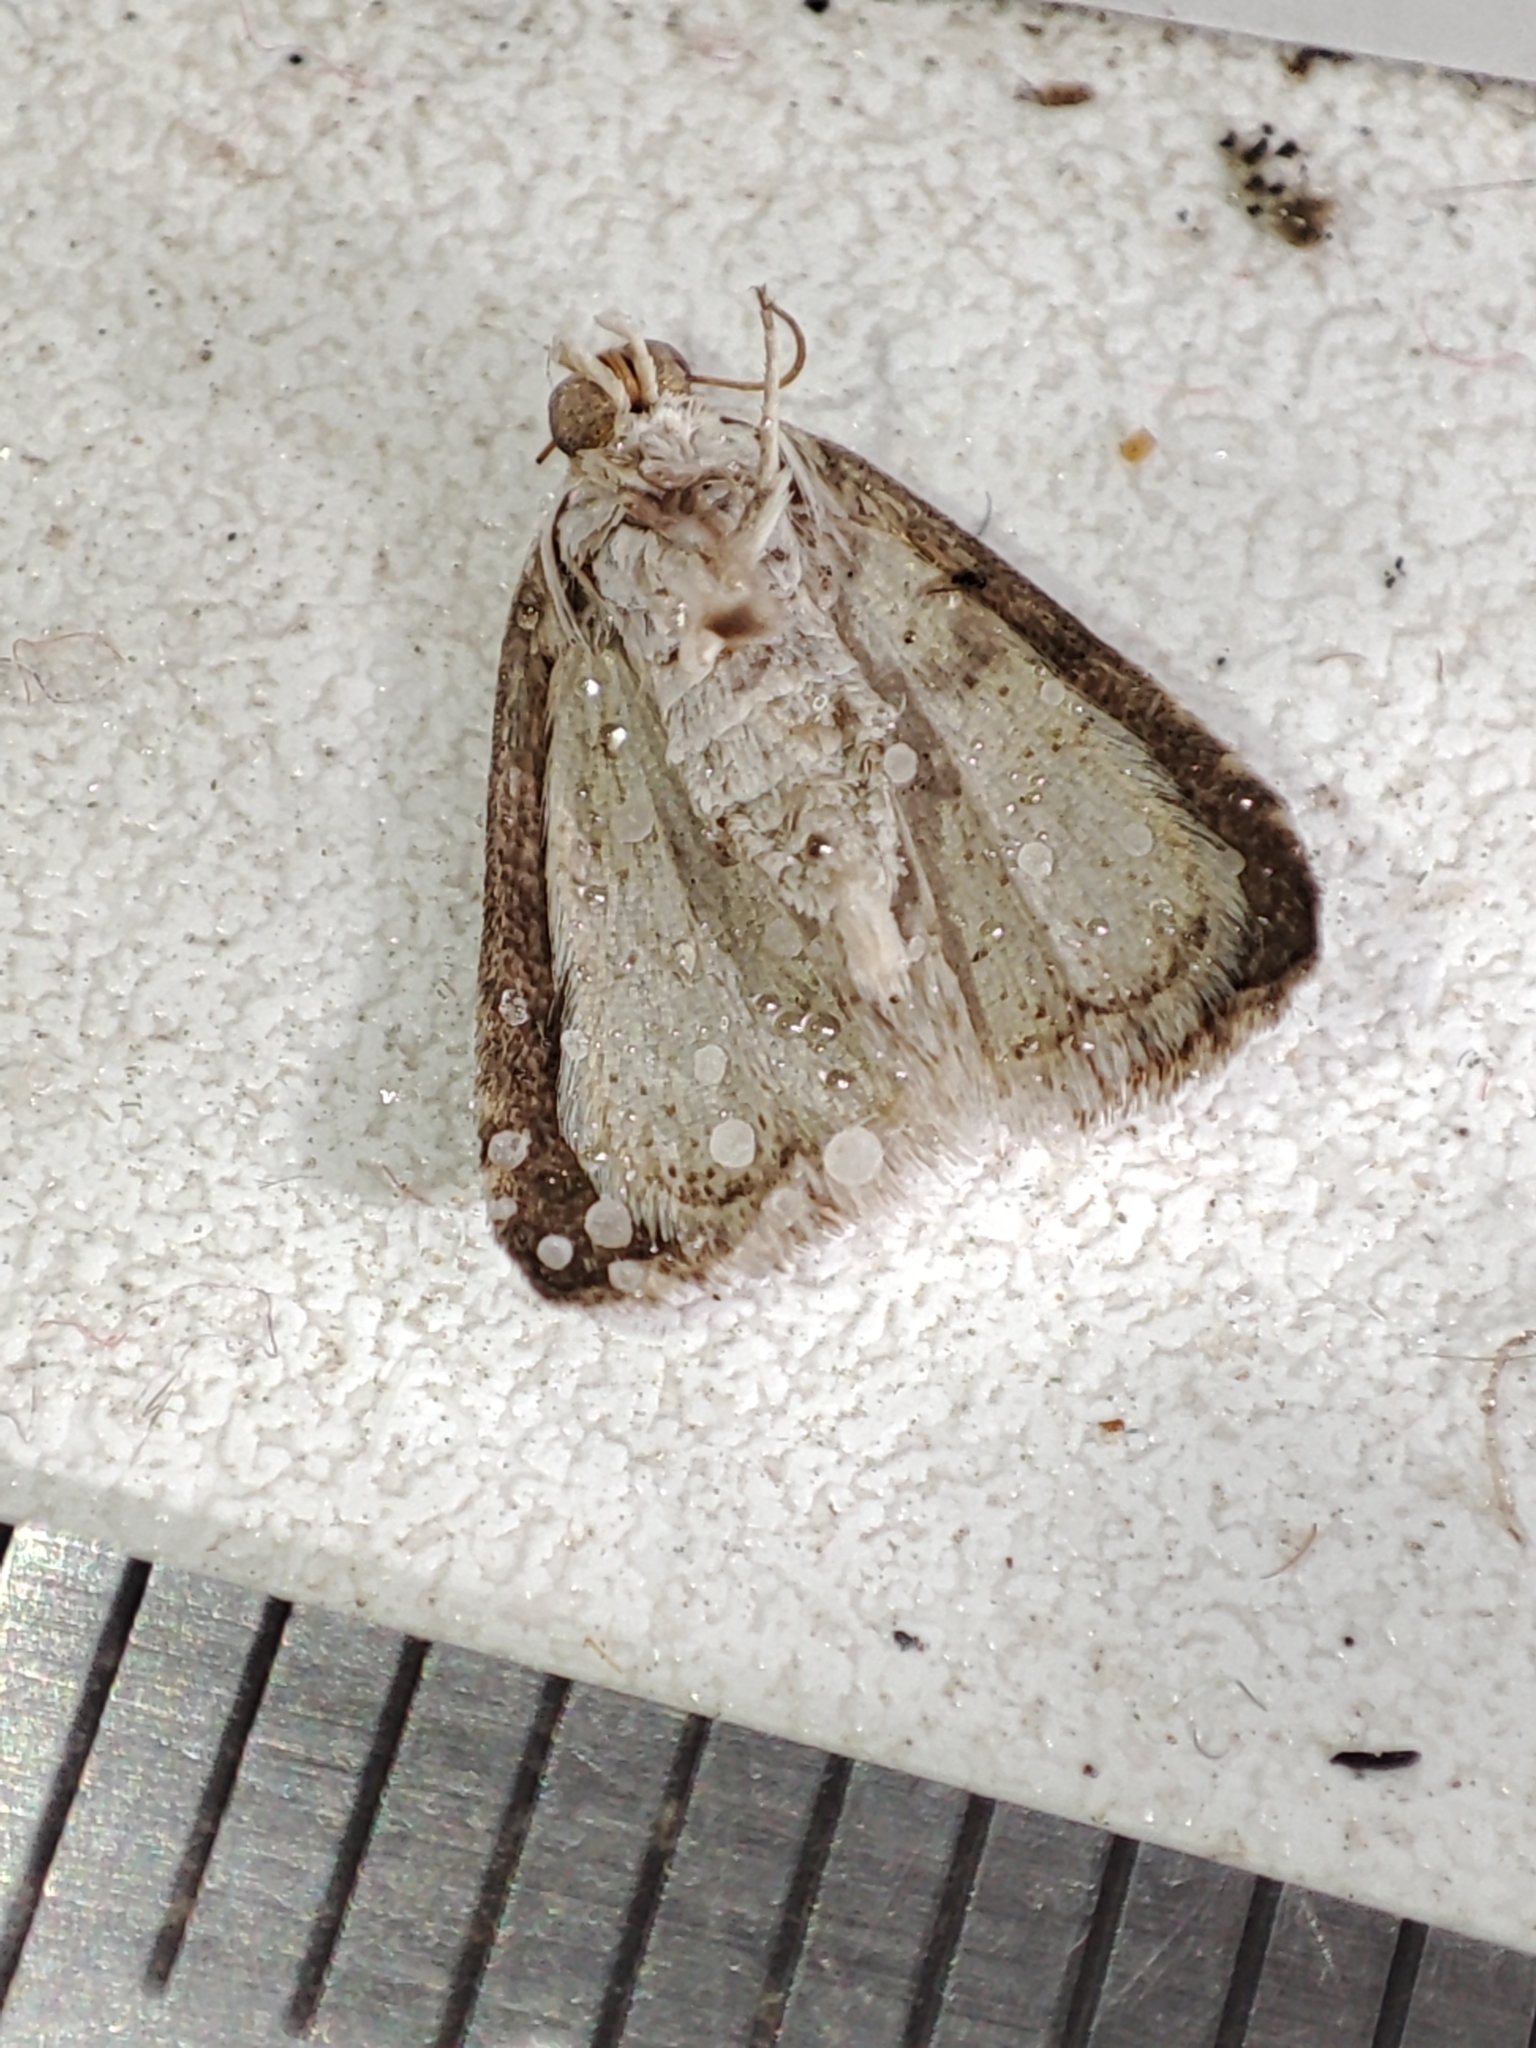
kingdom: Animalia
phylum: Arthropoda
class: Insecta
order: Lepidoptera
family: Noctuidae
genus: Eublemma
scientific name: Eublemma minutata
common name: Scarce marbled
